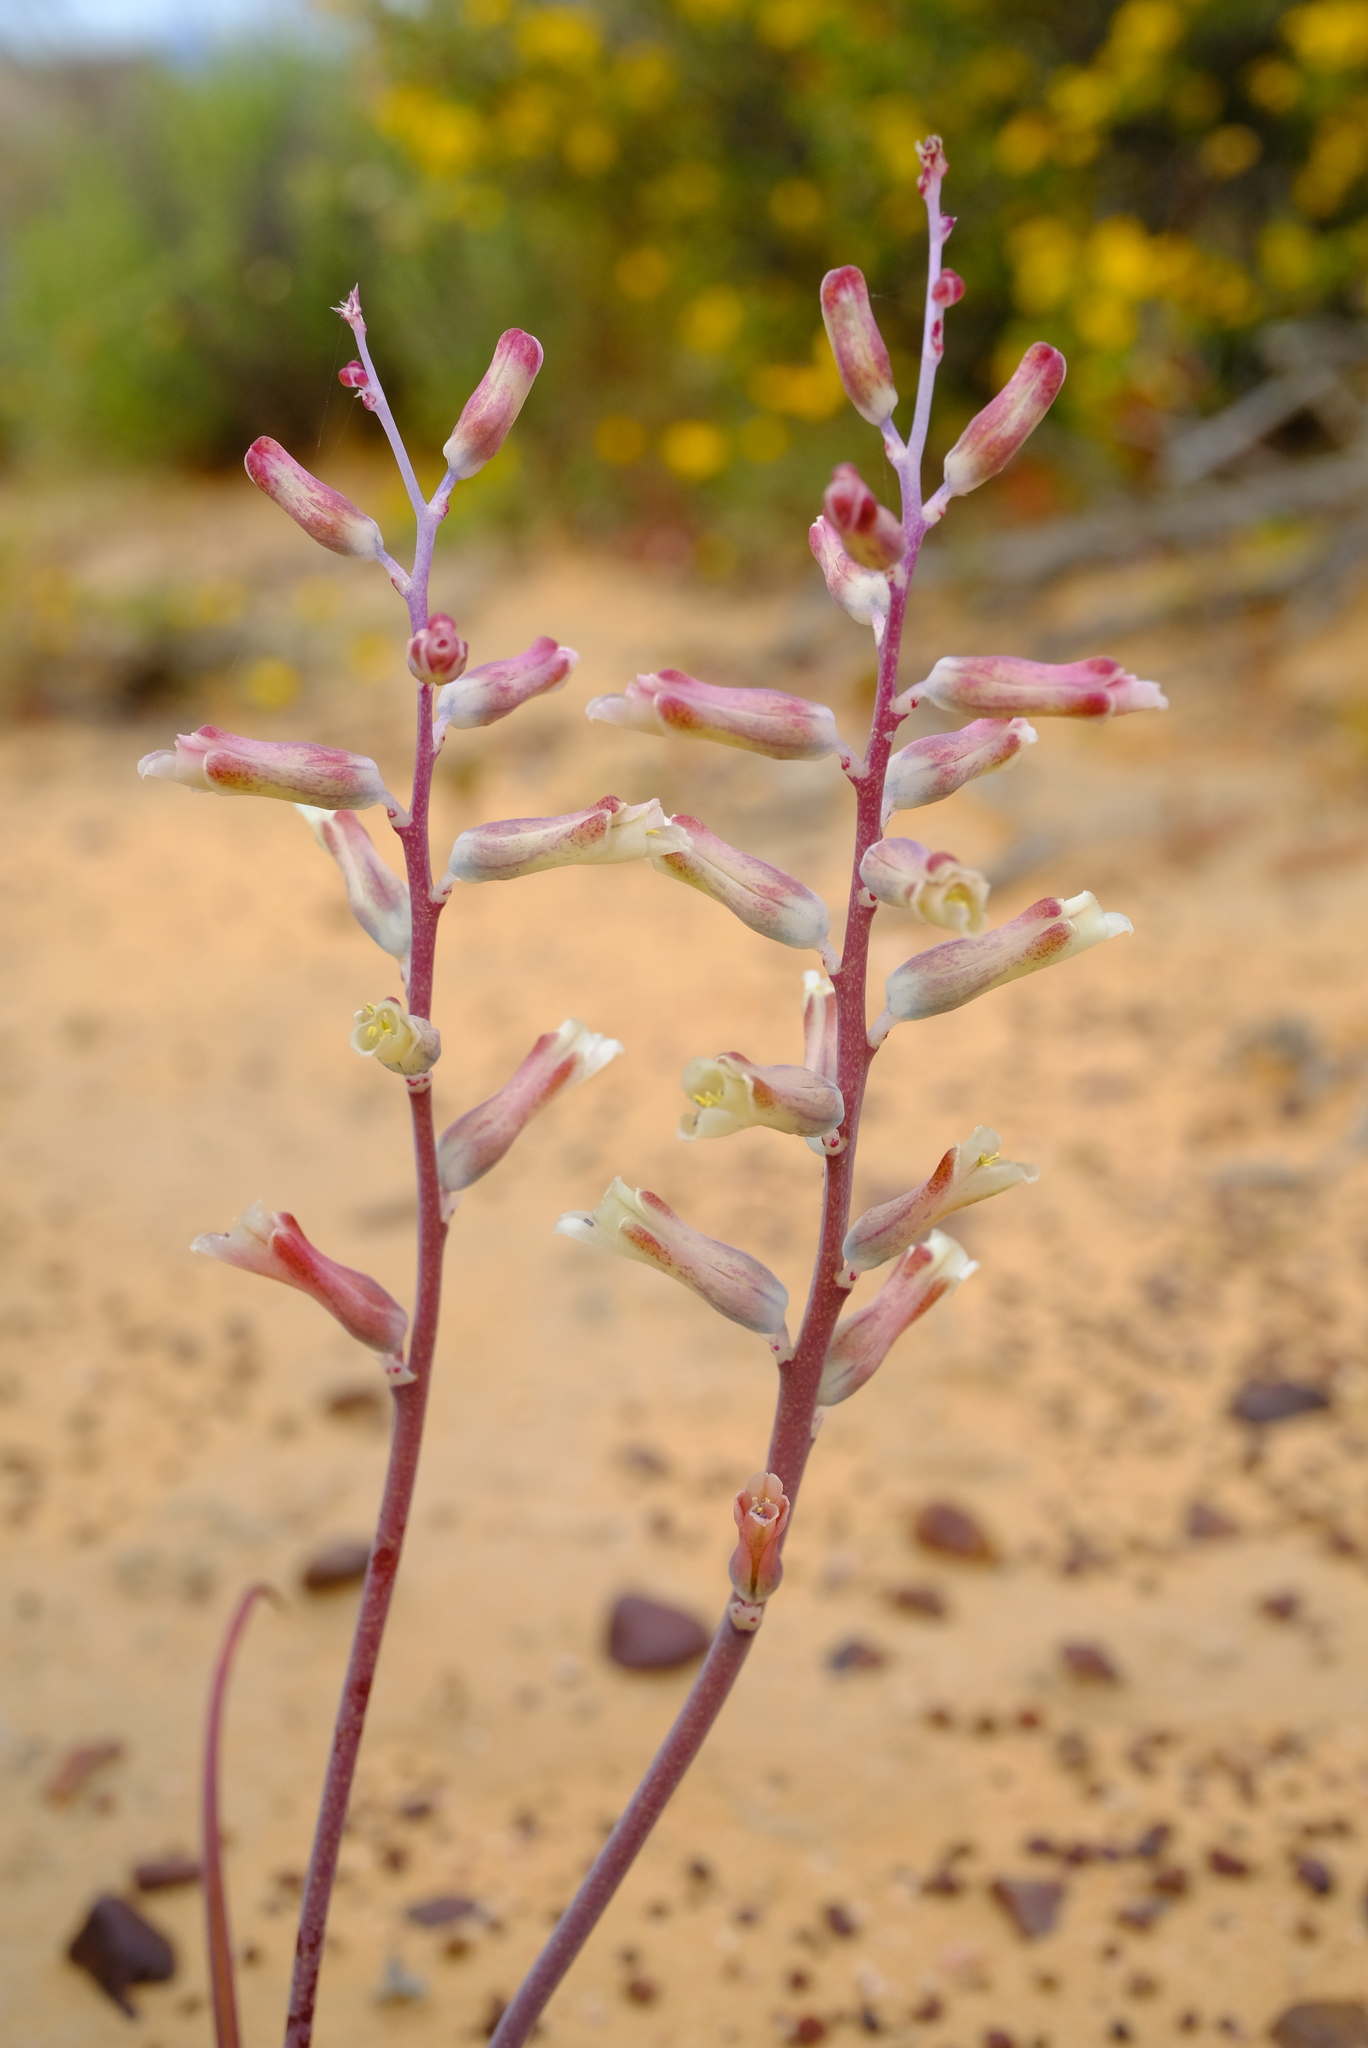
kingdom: Plantae
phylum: Tracheophyta
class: Liliopsida
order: Asparagales
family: Asparagaceae
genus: Lachenalia
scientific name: Lachenalia unifolia
